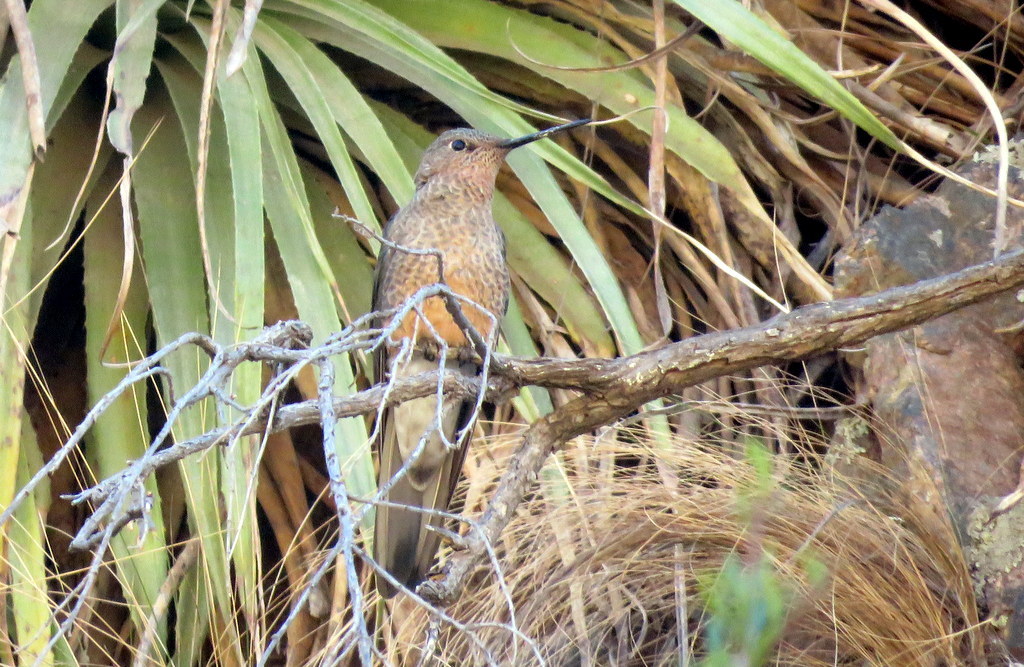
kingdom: Animalia
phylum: Chordata
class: Aves
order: Apodiformes
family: Trochilidae
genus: Patagona
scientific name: Patagona gigas
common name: Giant hummingbird
